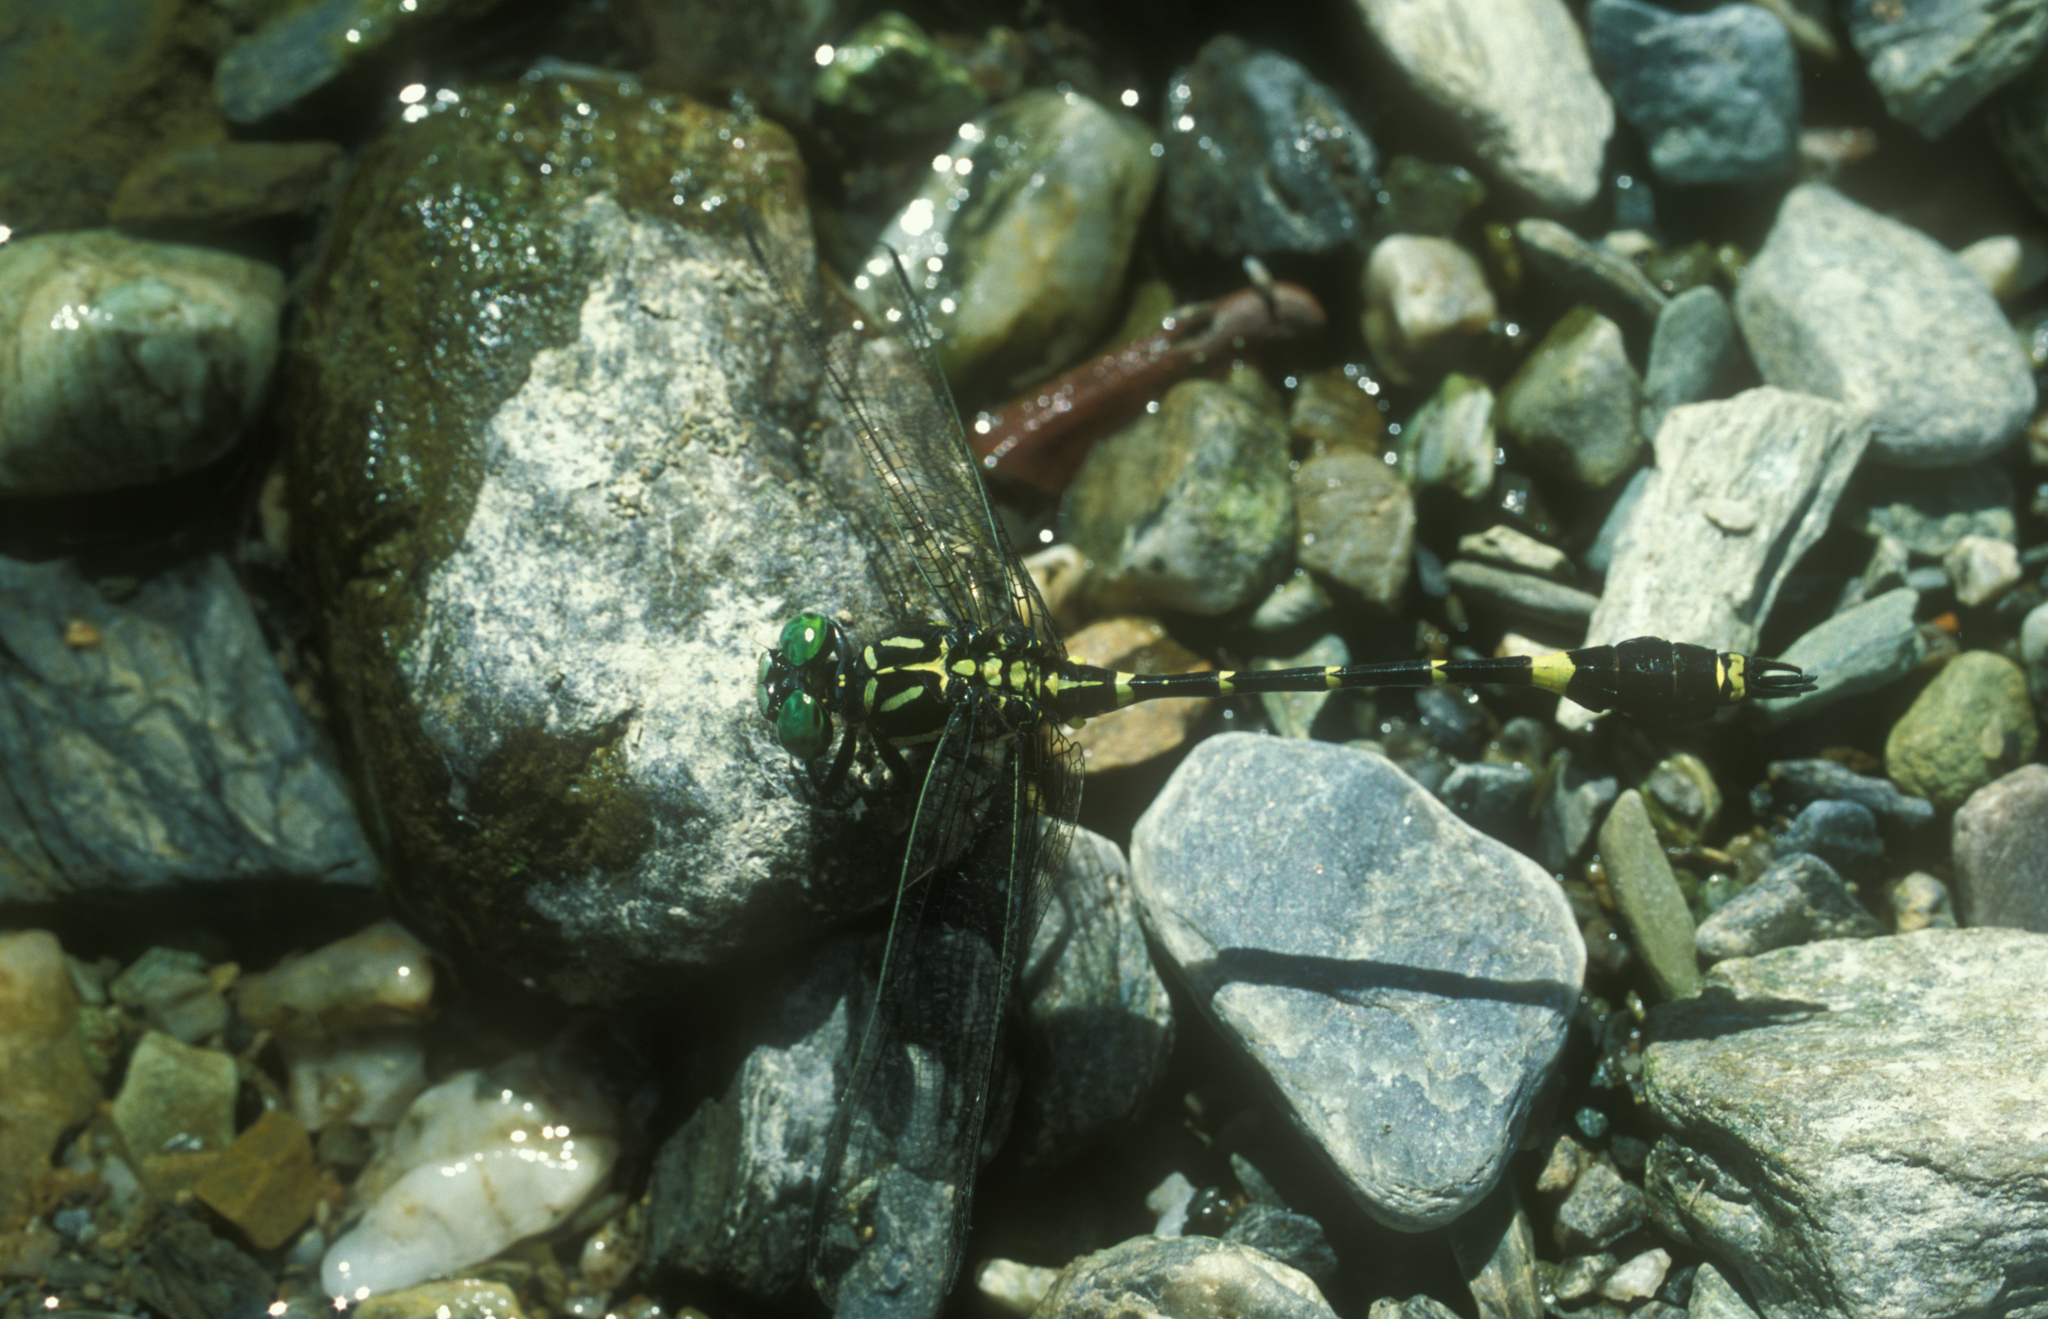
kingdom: Animalia
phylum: Arthropoda
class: Insecta
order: Odonata
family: Gomphidae
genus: Melligomphus
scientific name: Melligomphus viridicostus
